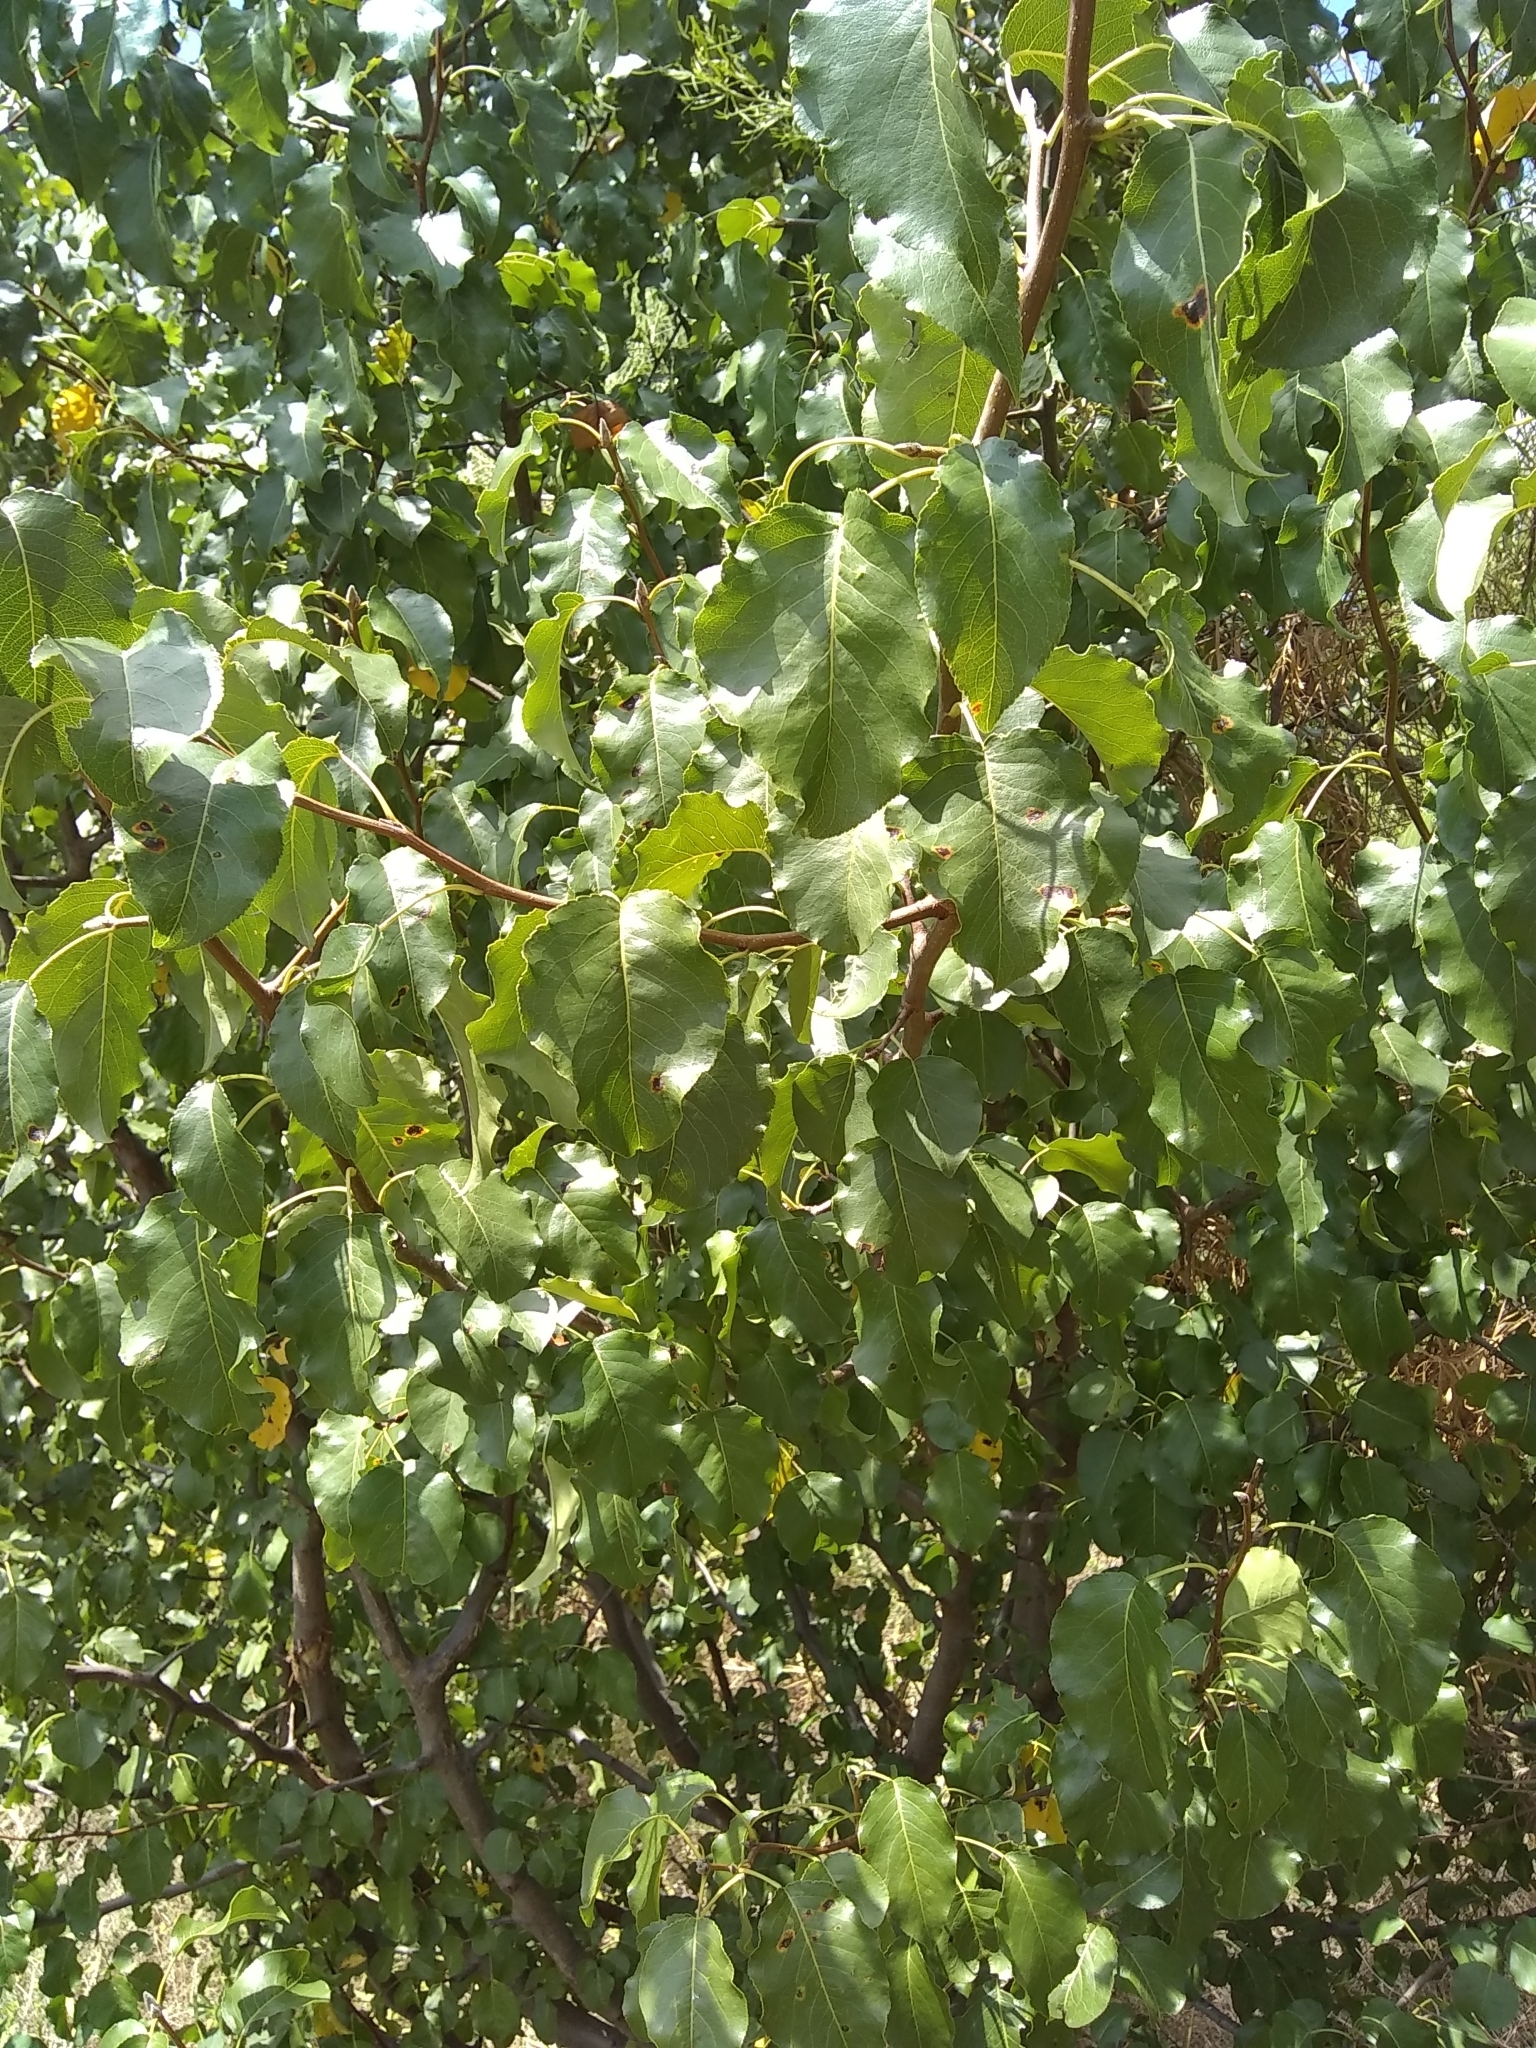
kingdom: Plantae
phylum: Tracheophyta
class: Magnoliopsida
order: Rosales
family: Rosaceae
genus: Pyrus
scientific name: Pyrus calleryana
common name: Callery pear
